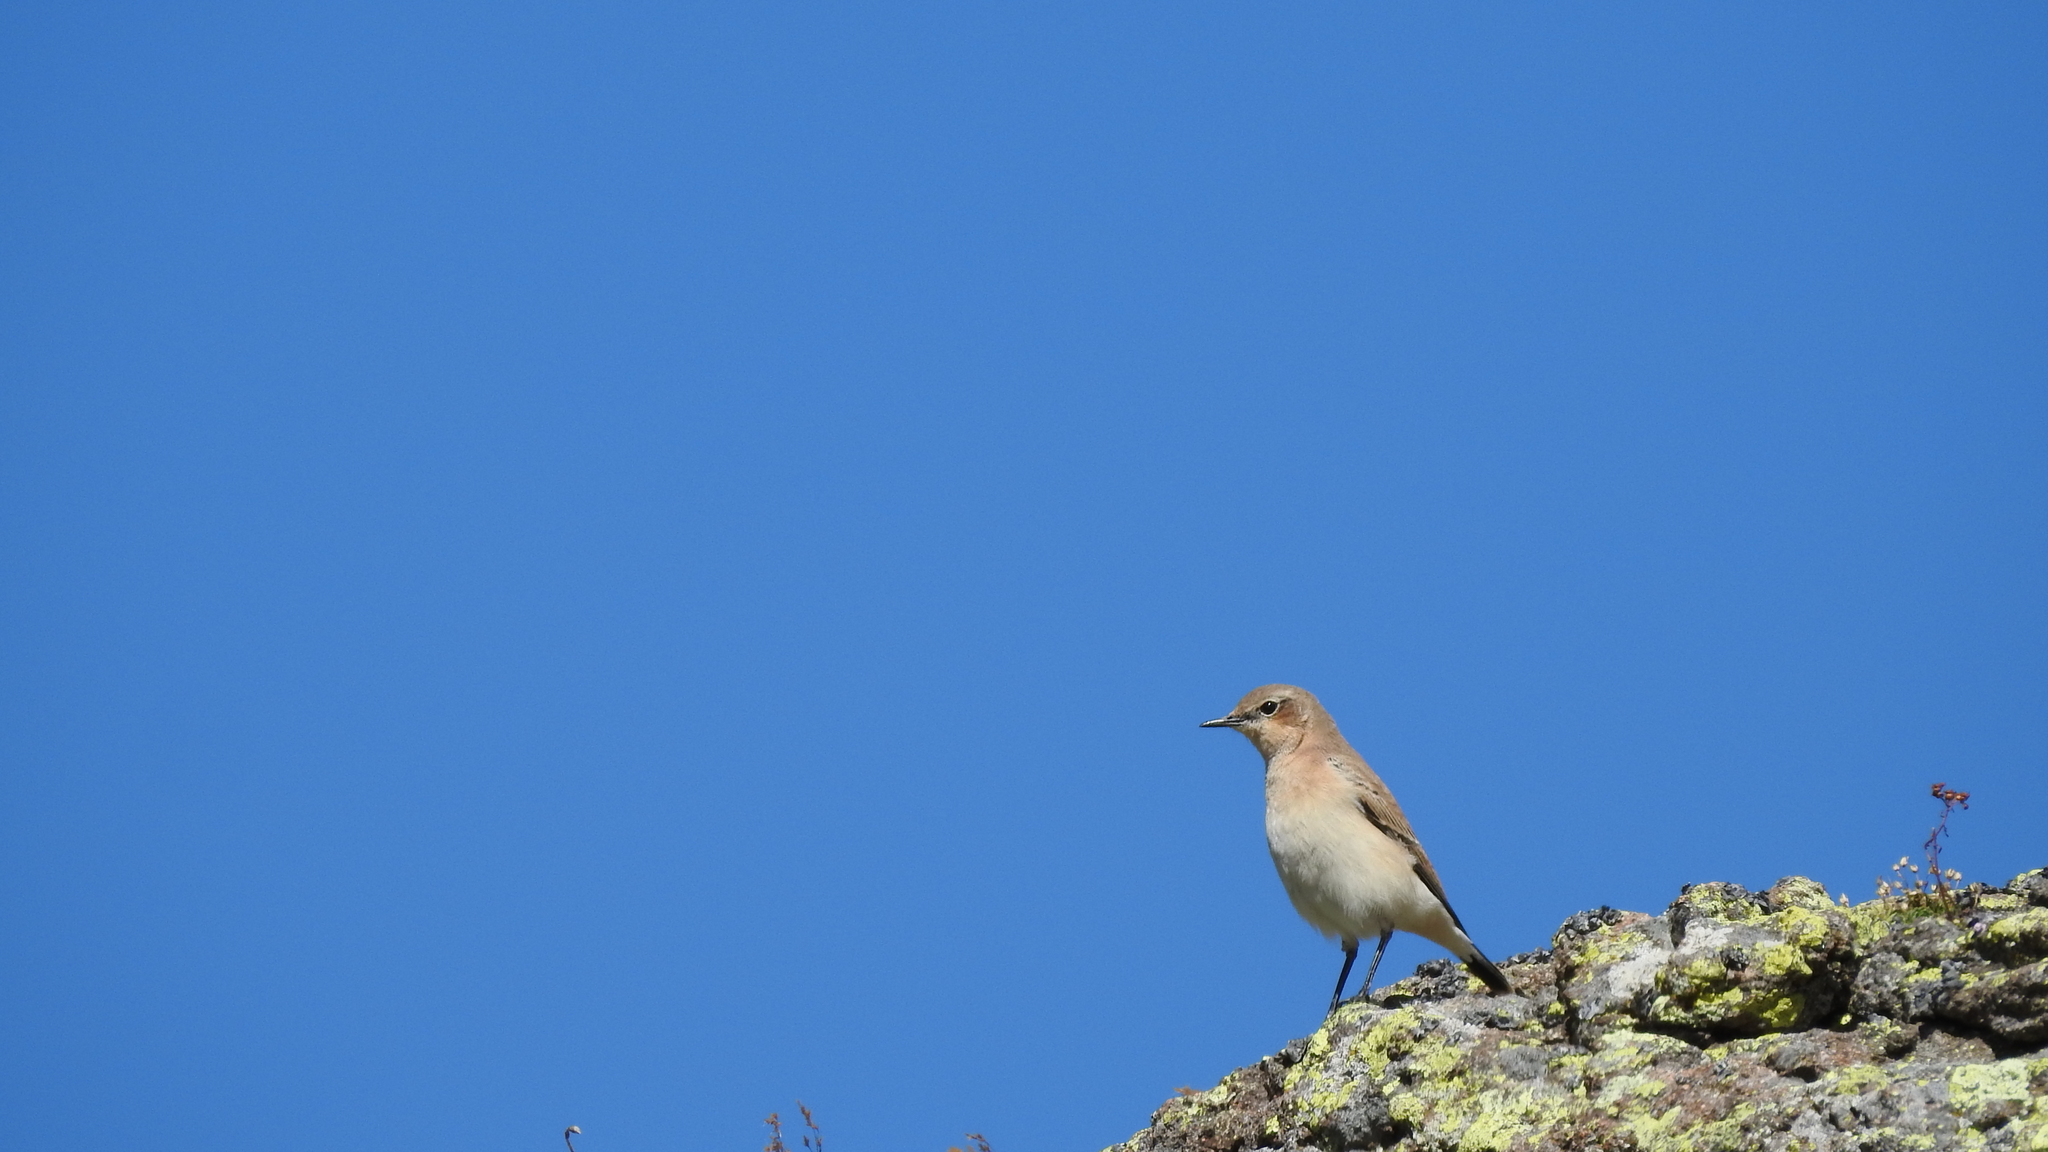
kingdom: Animalia
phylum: Chordata
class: Aves
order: Passeriformes
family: Muscicapidae
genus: Oenanthe
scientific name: Oenanthe oenanthe
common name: Northern wheatear
